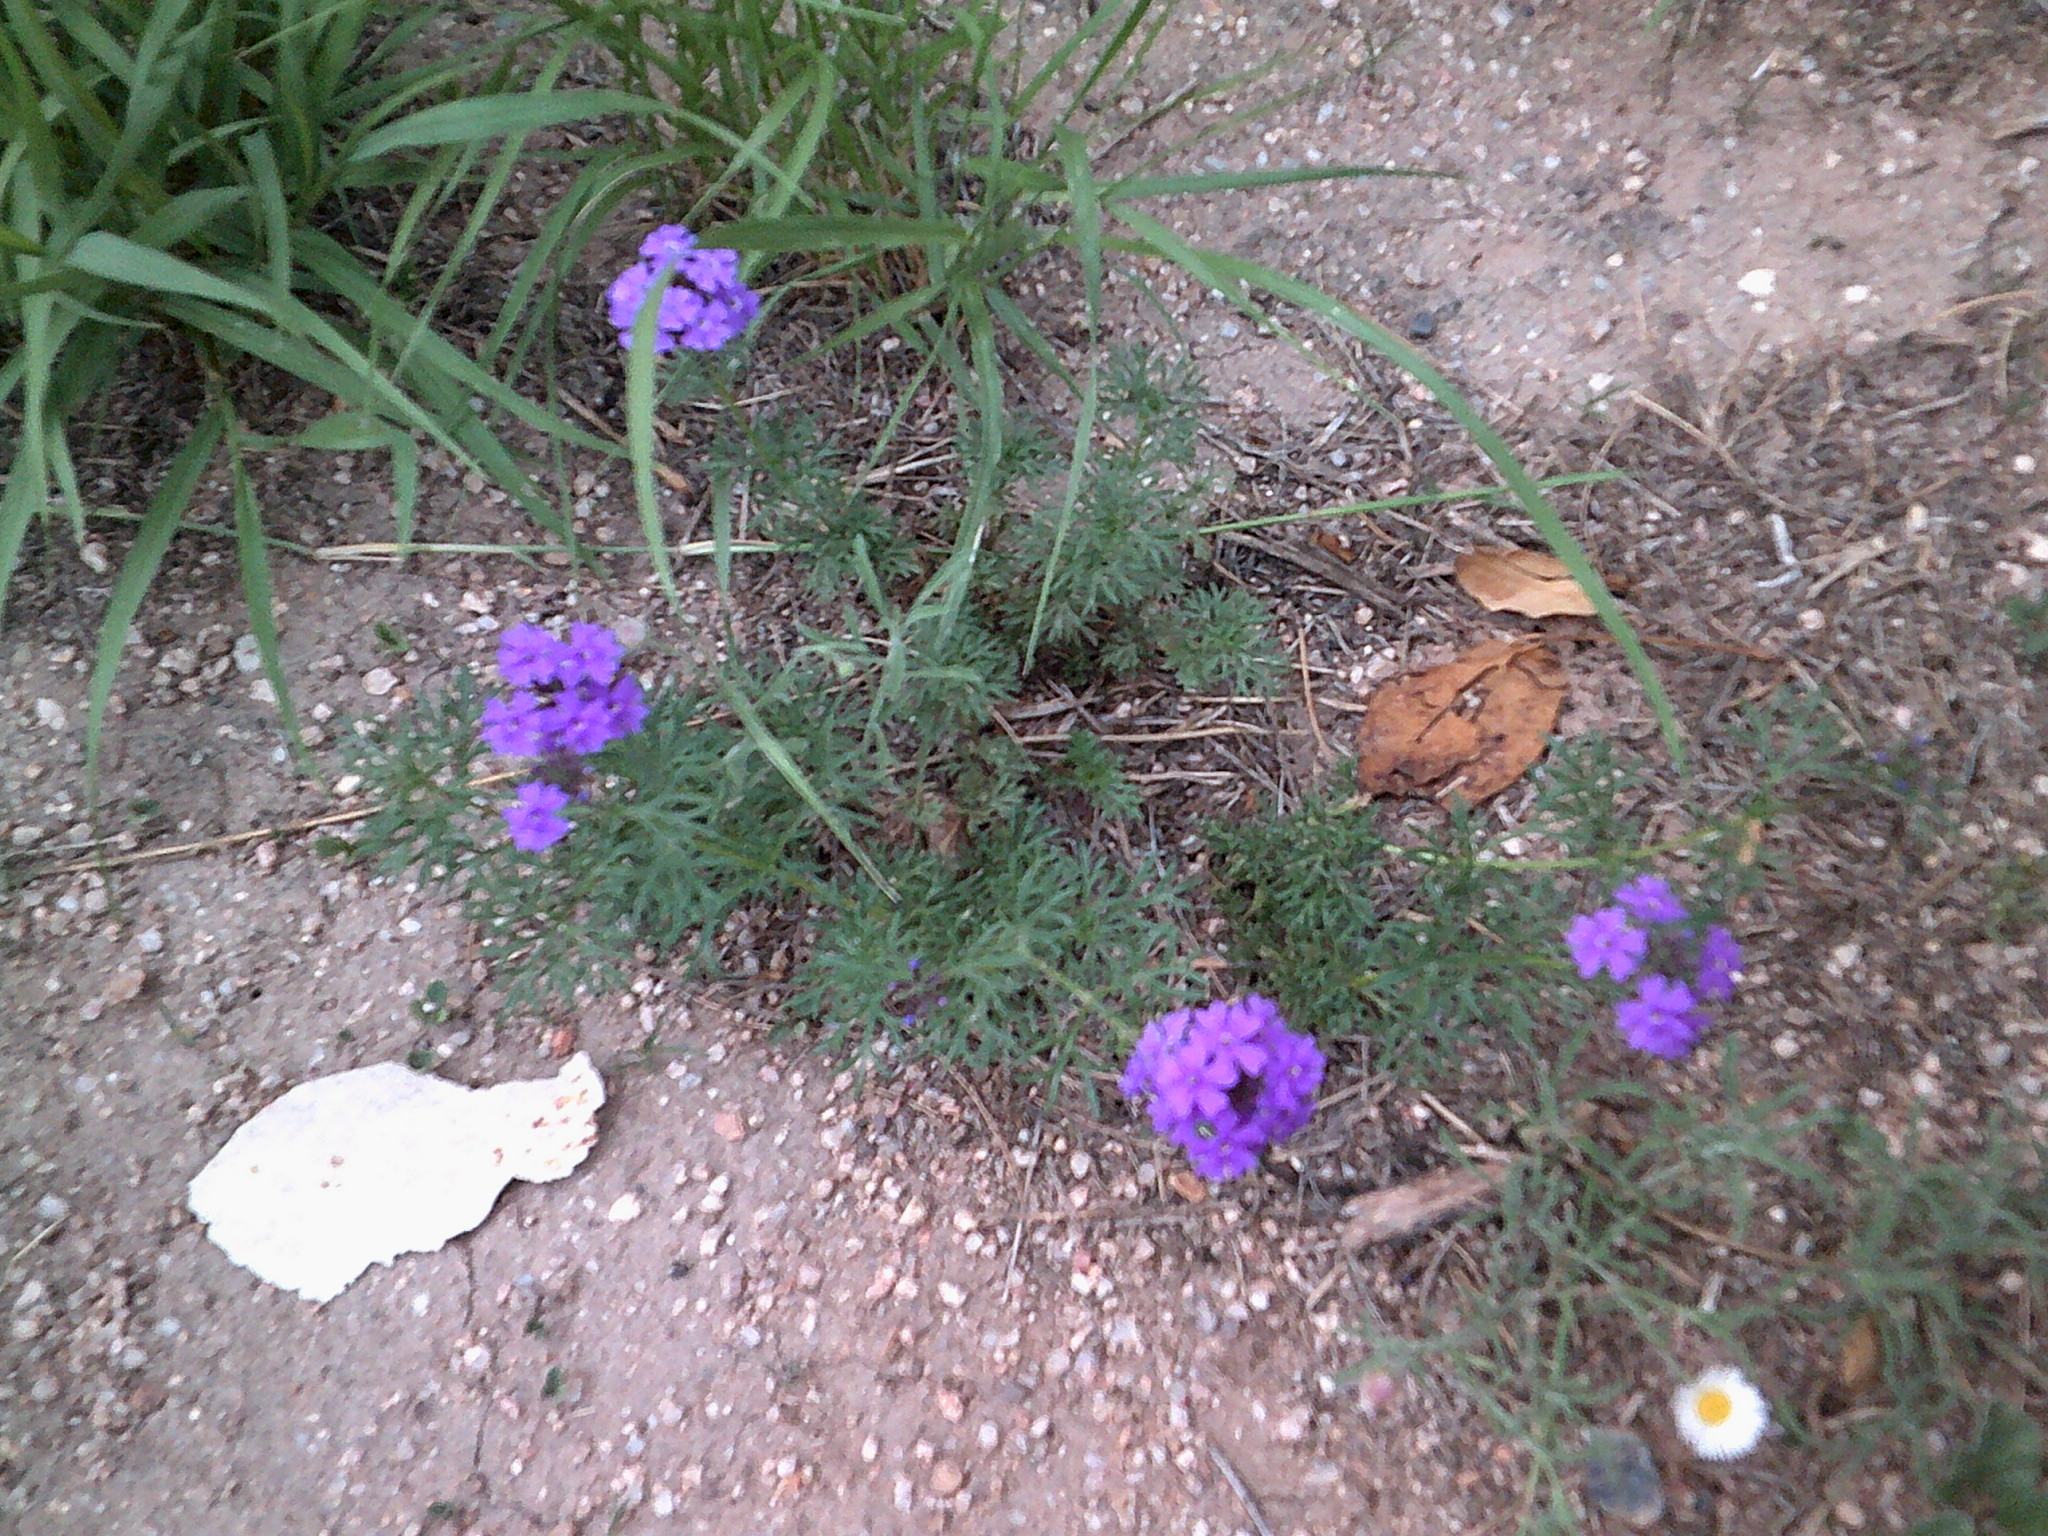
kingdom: Plantae
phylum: Tracheophyta
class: Magnoliopsida
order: Lamiales
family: Verbenaceae
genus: Verbena
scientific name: Verbena
